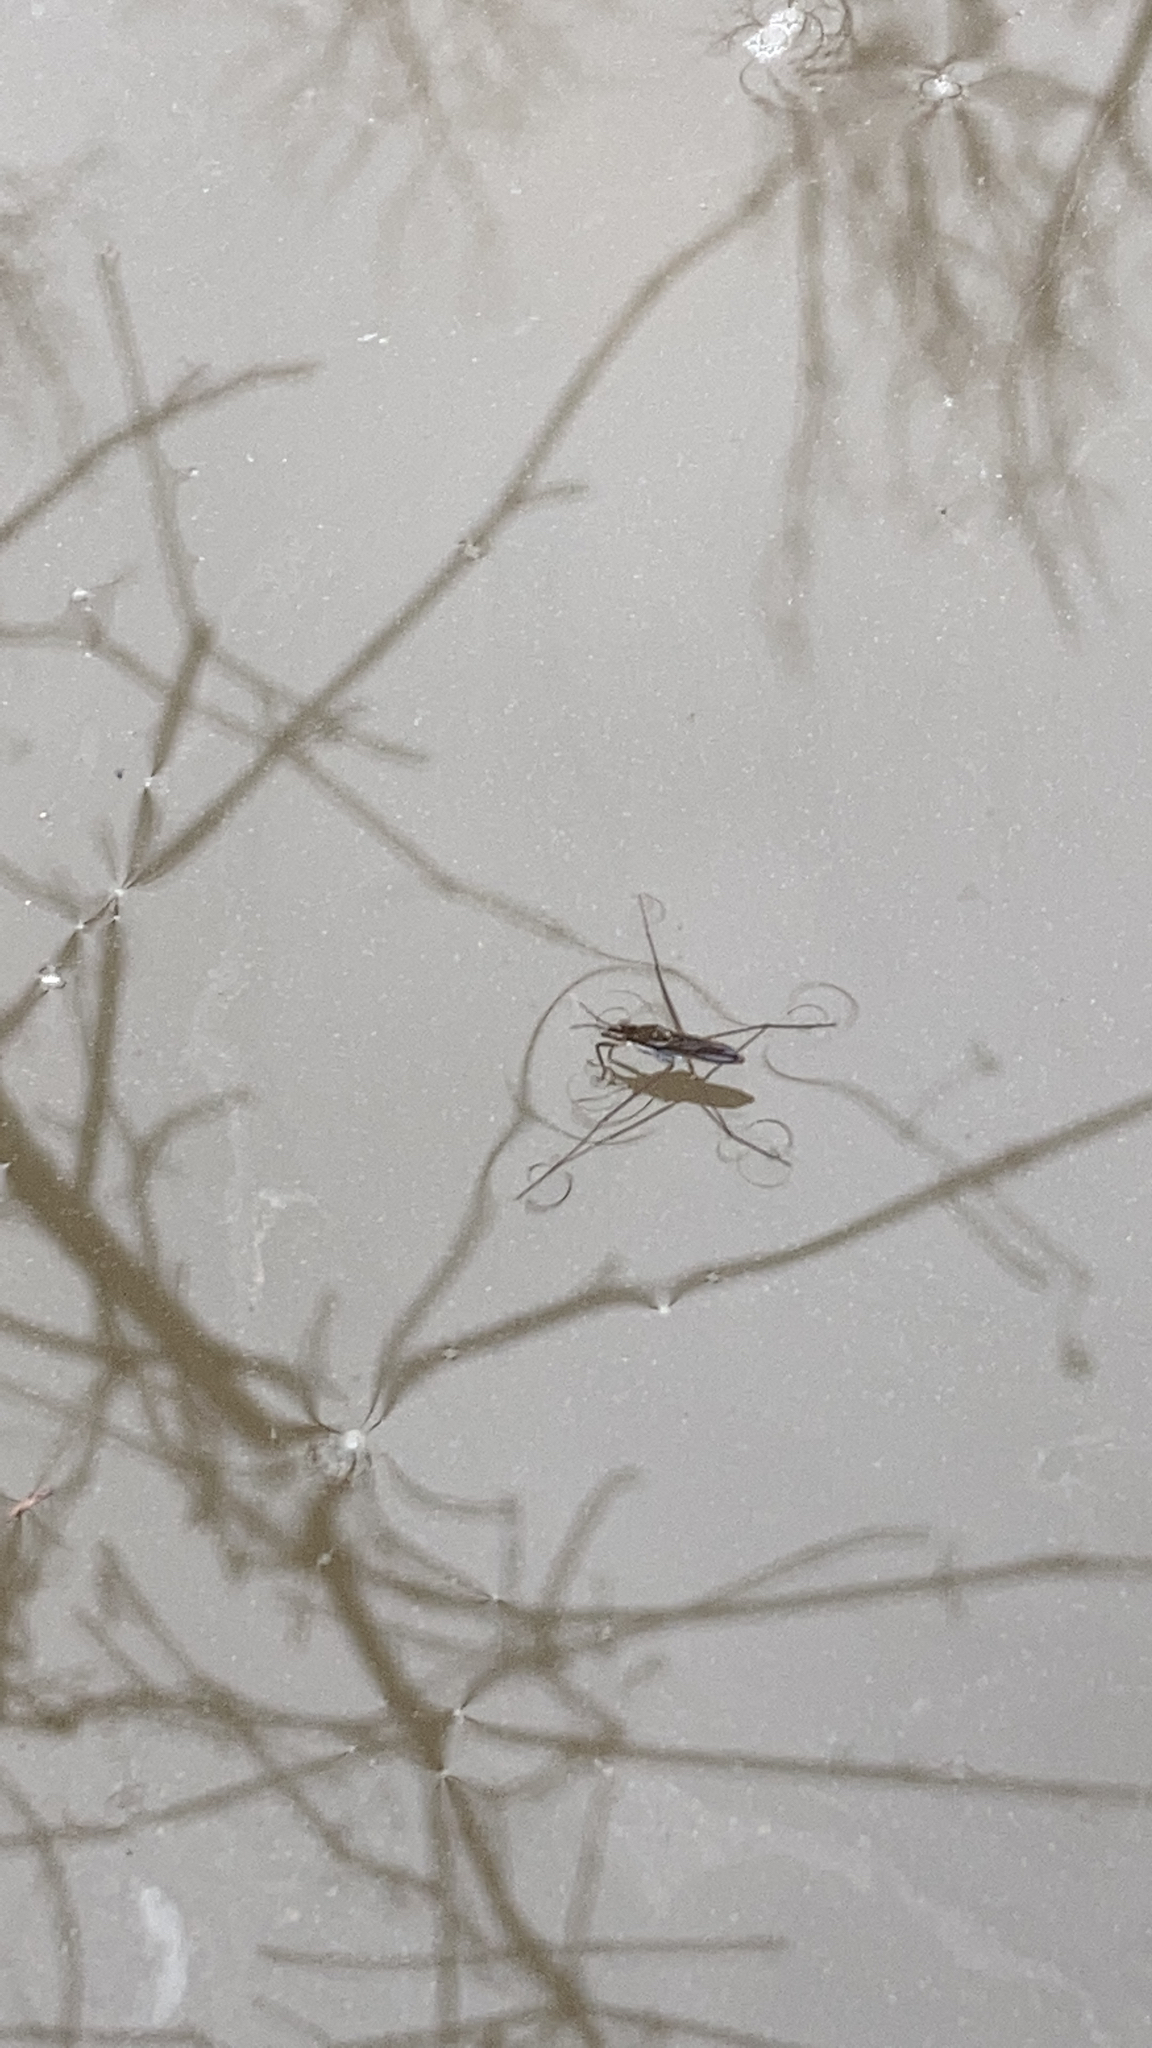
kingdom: Animalia
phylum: Arthropoda
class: Insecta
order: Hemiptera
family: Gerridae
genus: Gerris
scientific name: Gerris
